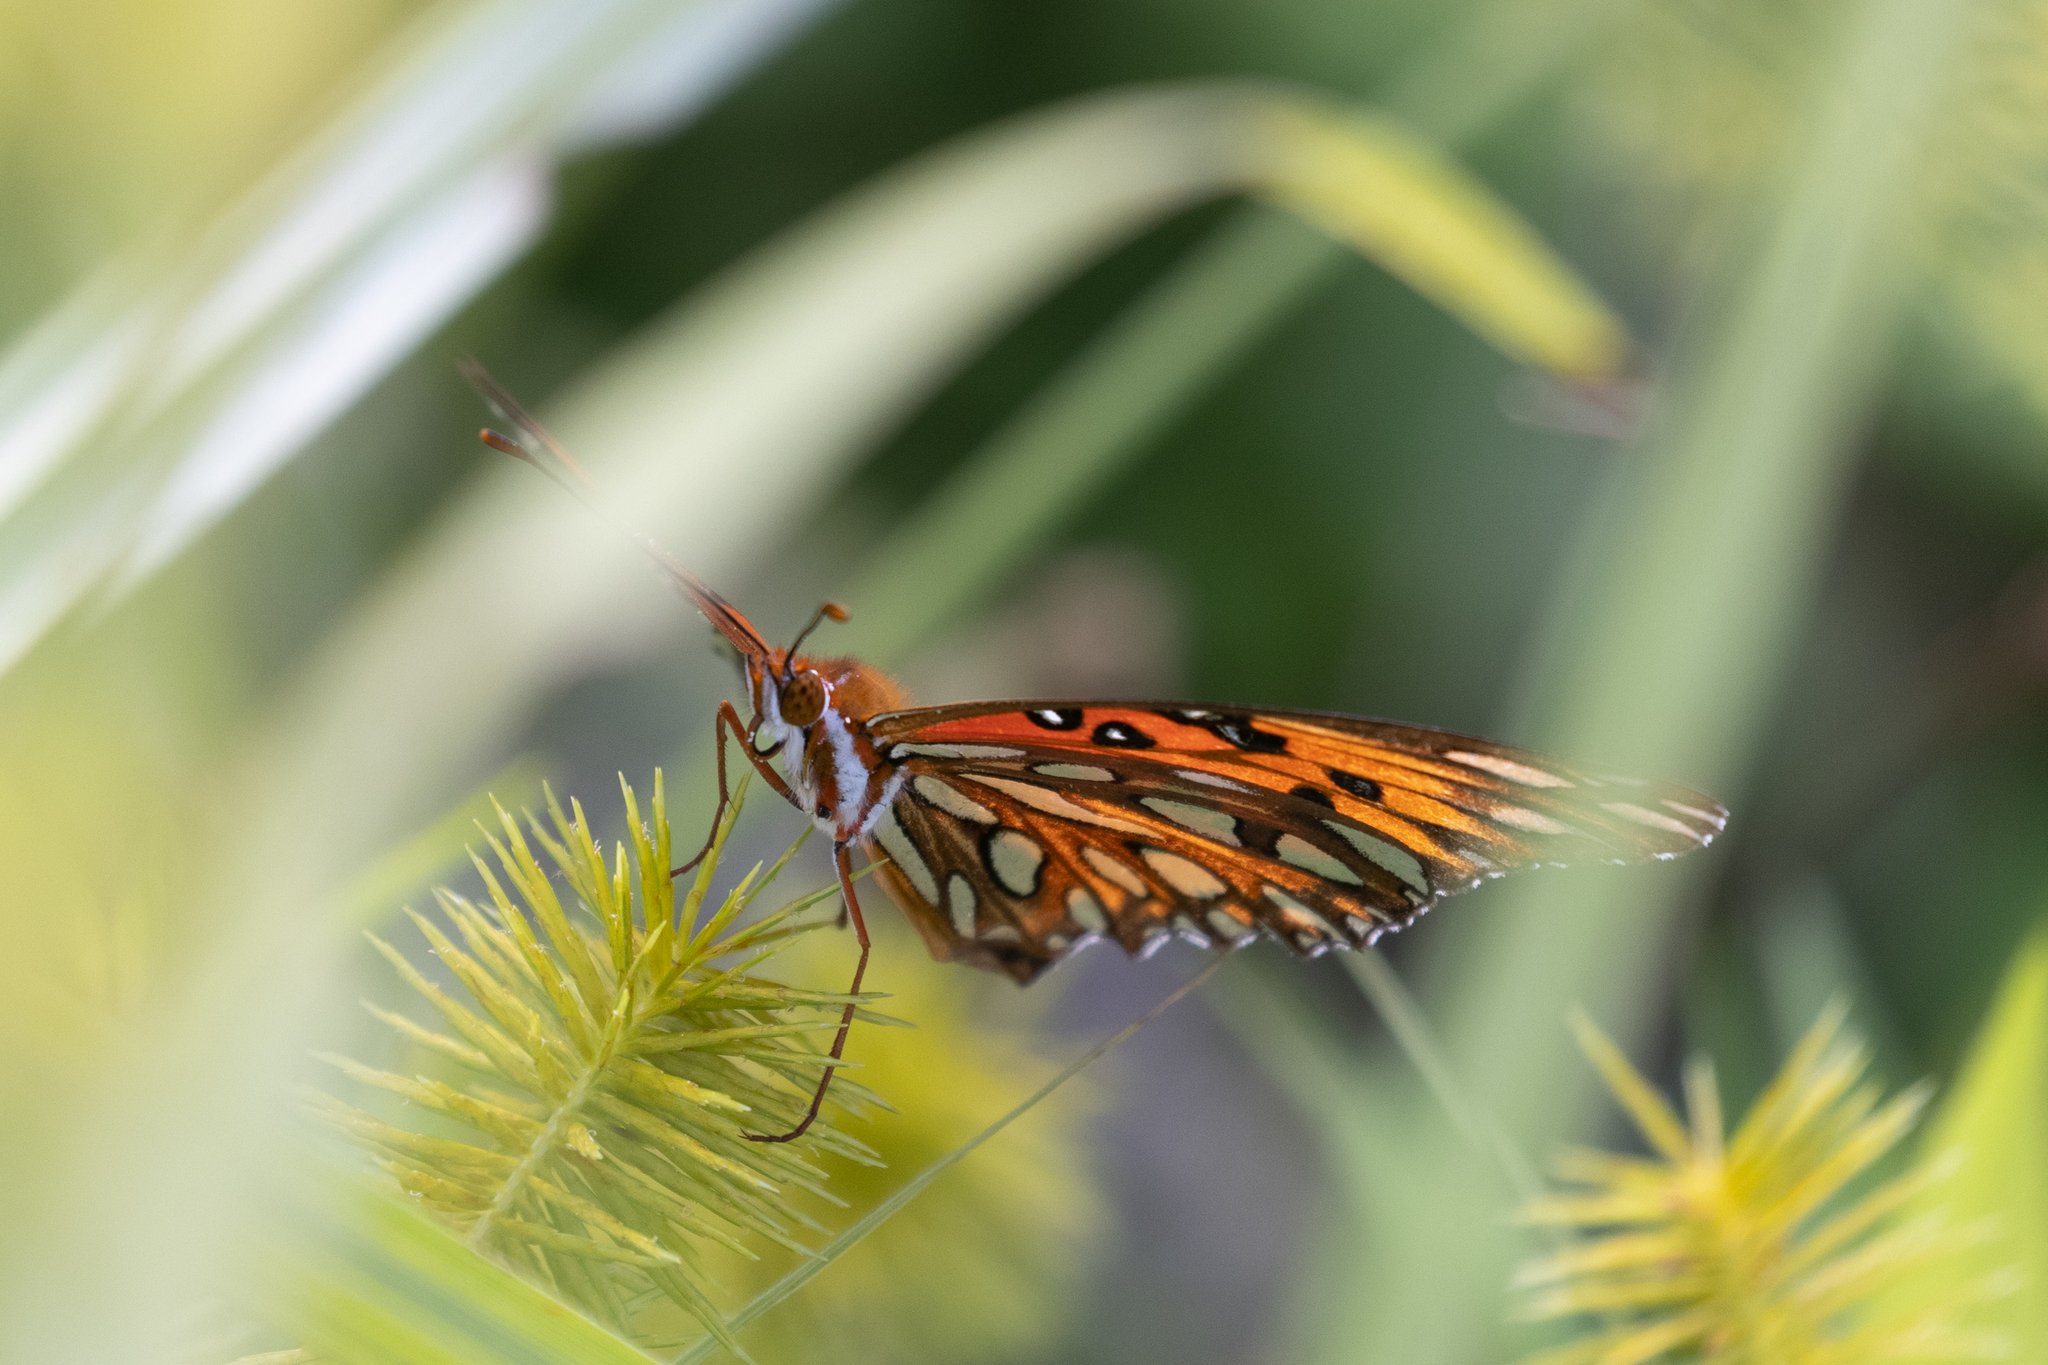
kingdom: Animalia
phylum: Arthropoda
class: Insecta
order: Lepidoptera
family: Nymphalidae
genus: Dione
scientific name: Dione vanillae
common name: Gulf fritillary
